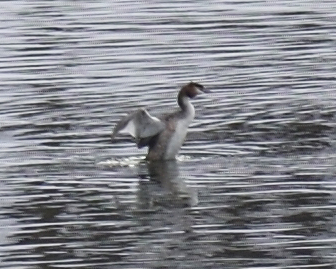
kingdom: Animalia
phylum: Chordata
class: Aves
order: Podicipediformes
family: Podicipedidae
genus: Podiceps
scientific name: Podiceps cristatus
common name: Great crested grebe
